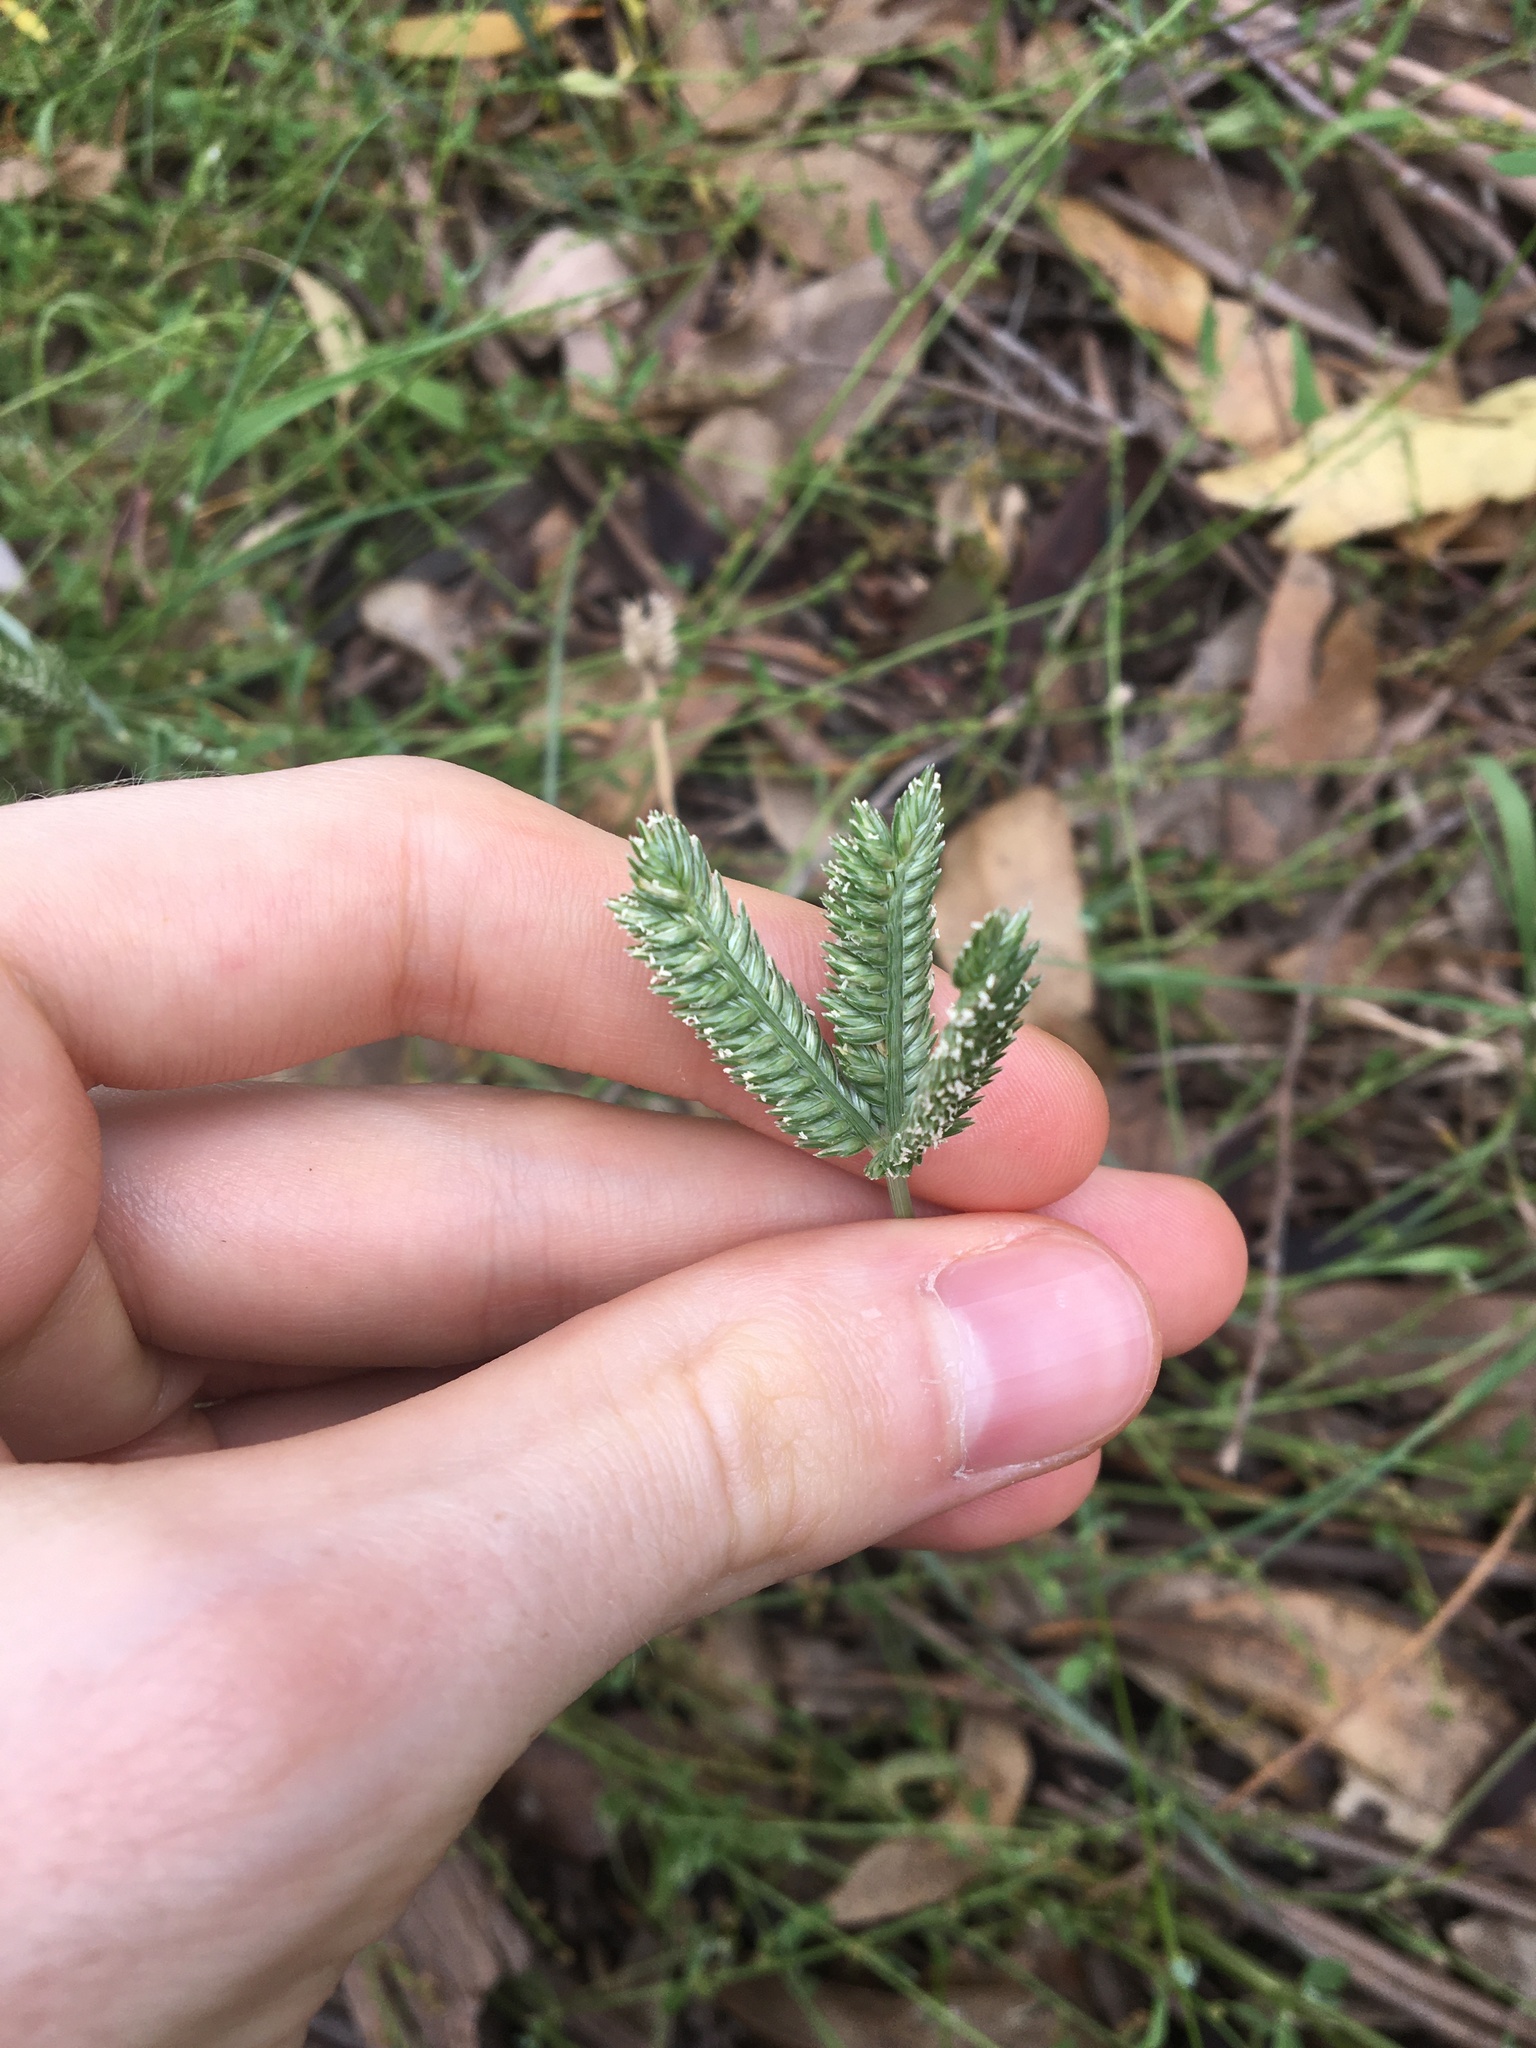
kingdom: Plantae
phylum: Tracheophyta
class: Liliopsida
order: Poales
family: Poaceae
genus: Eleusine
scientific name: Eleusine tristachya
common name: American yard-grass
